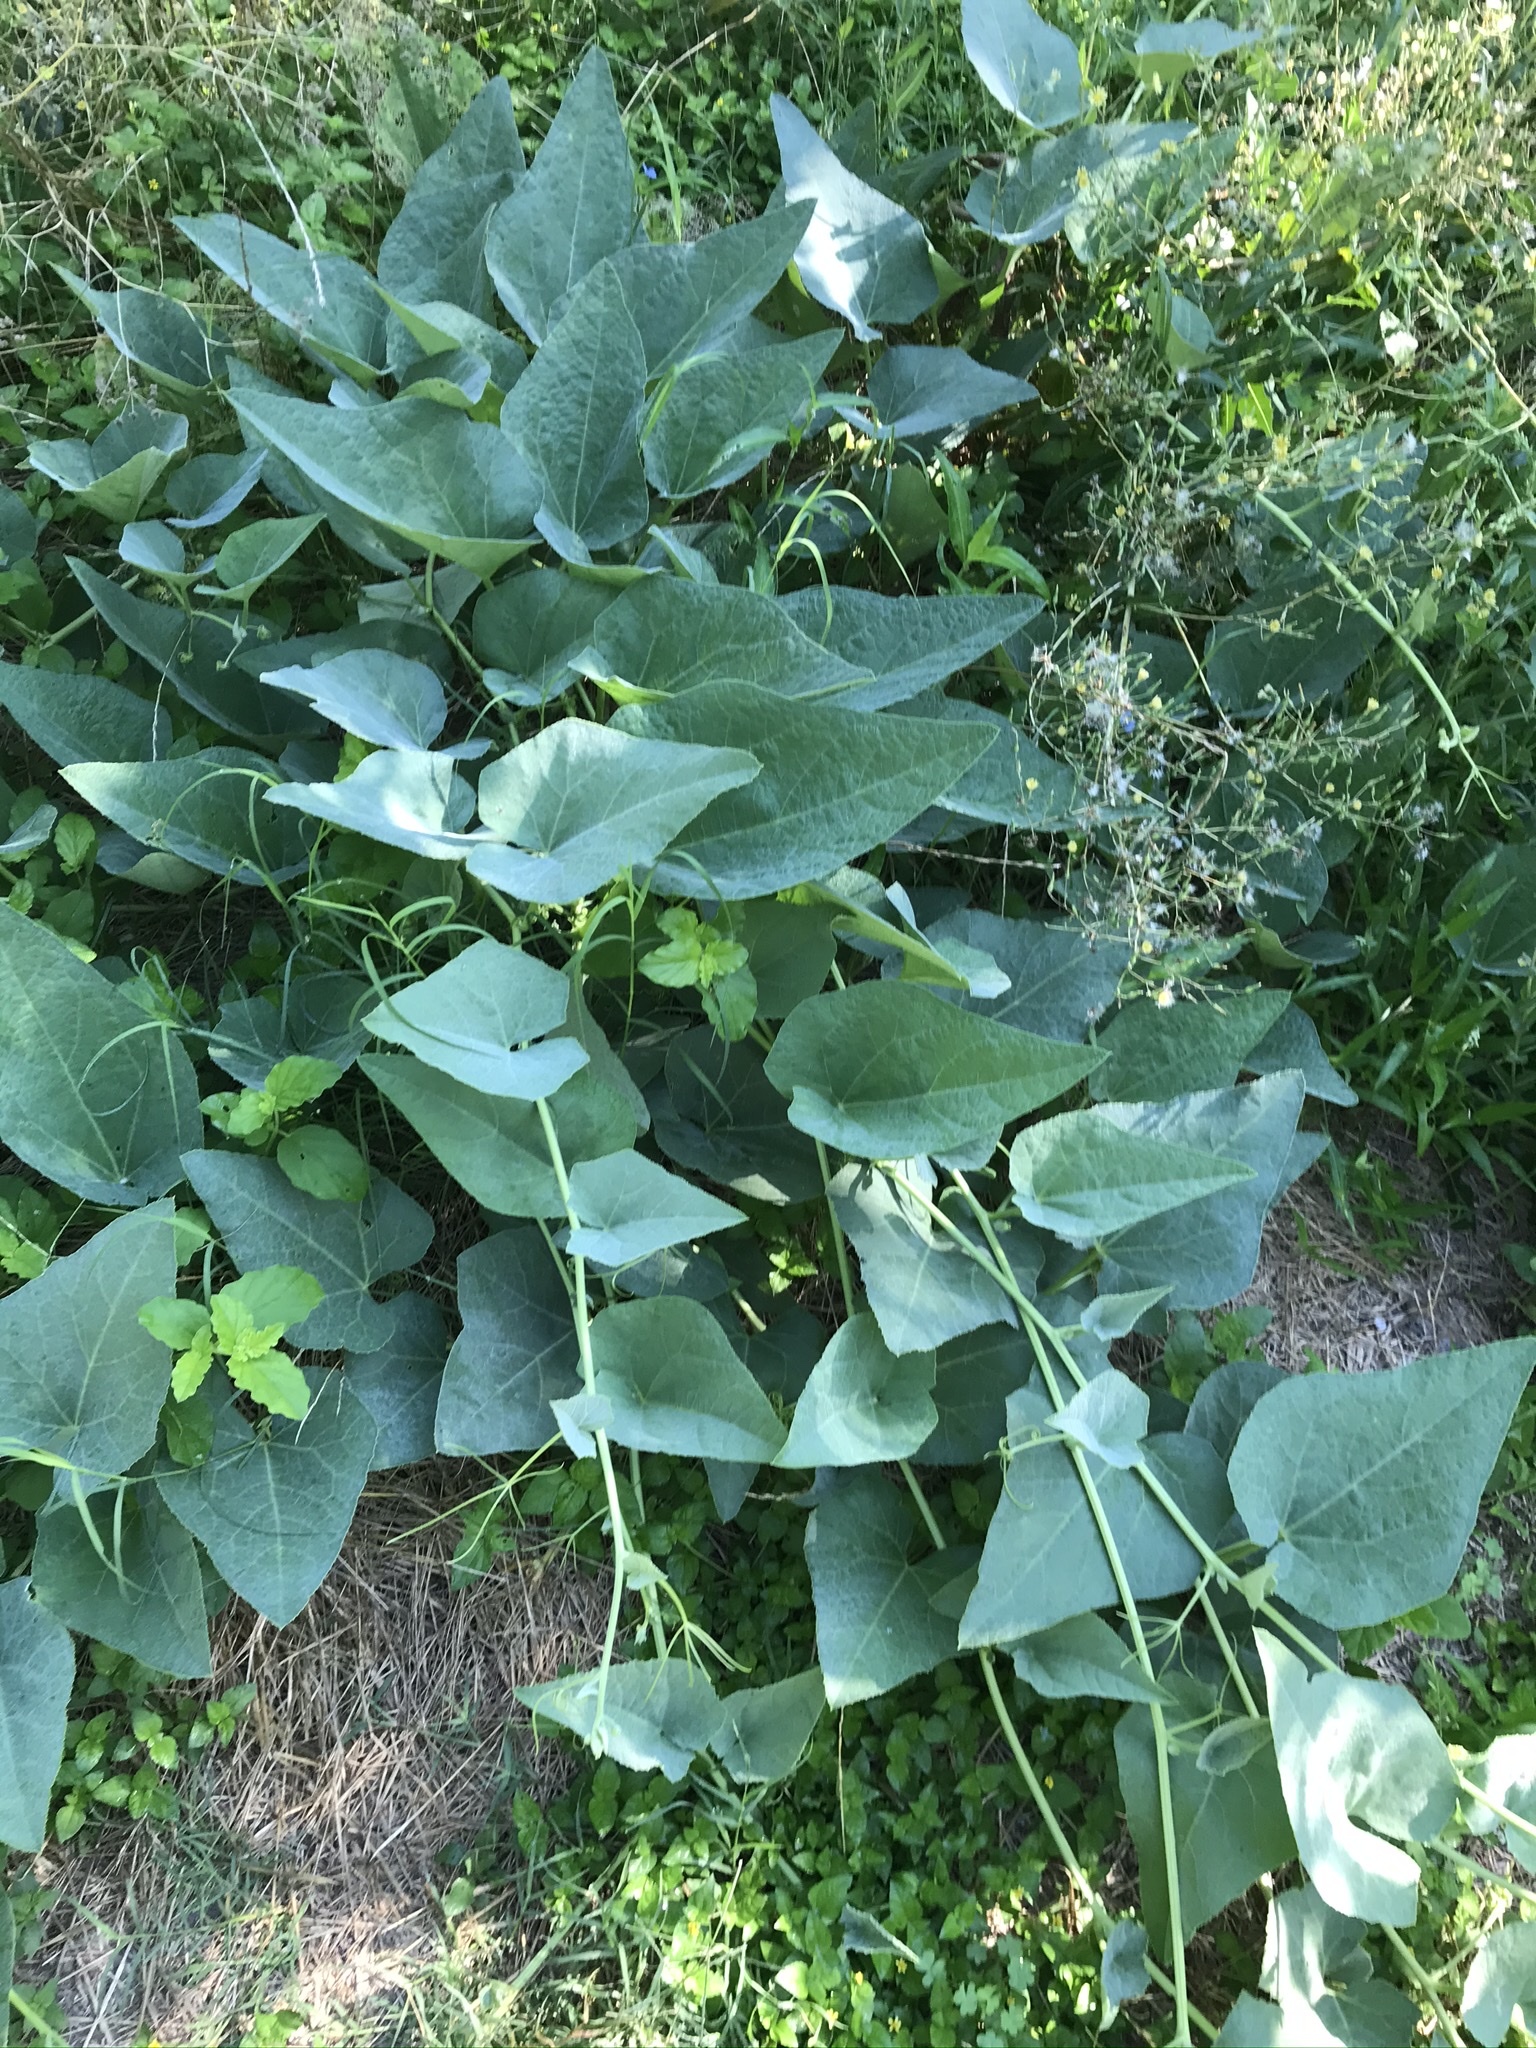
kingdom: Plantae
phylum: Tracheophyta
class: Magnoliopsida
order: Cucurbitales
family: Cucurbitaceae
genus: Cucurbita
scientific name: Cucurbita foetidissima
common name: Buffalo gourd
